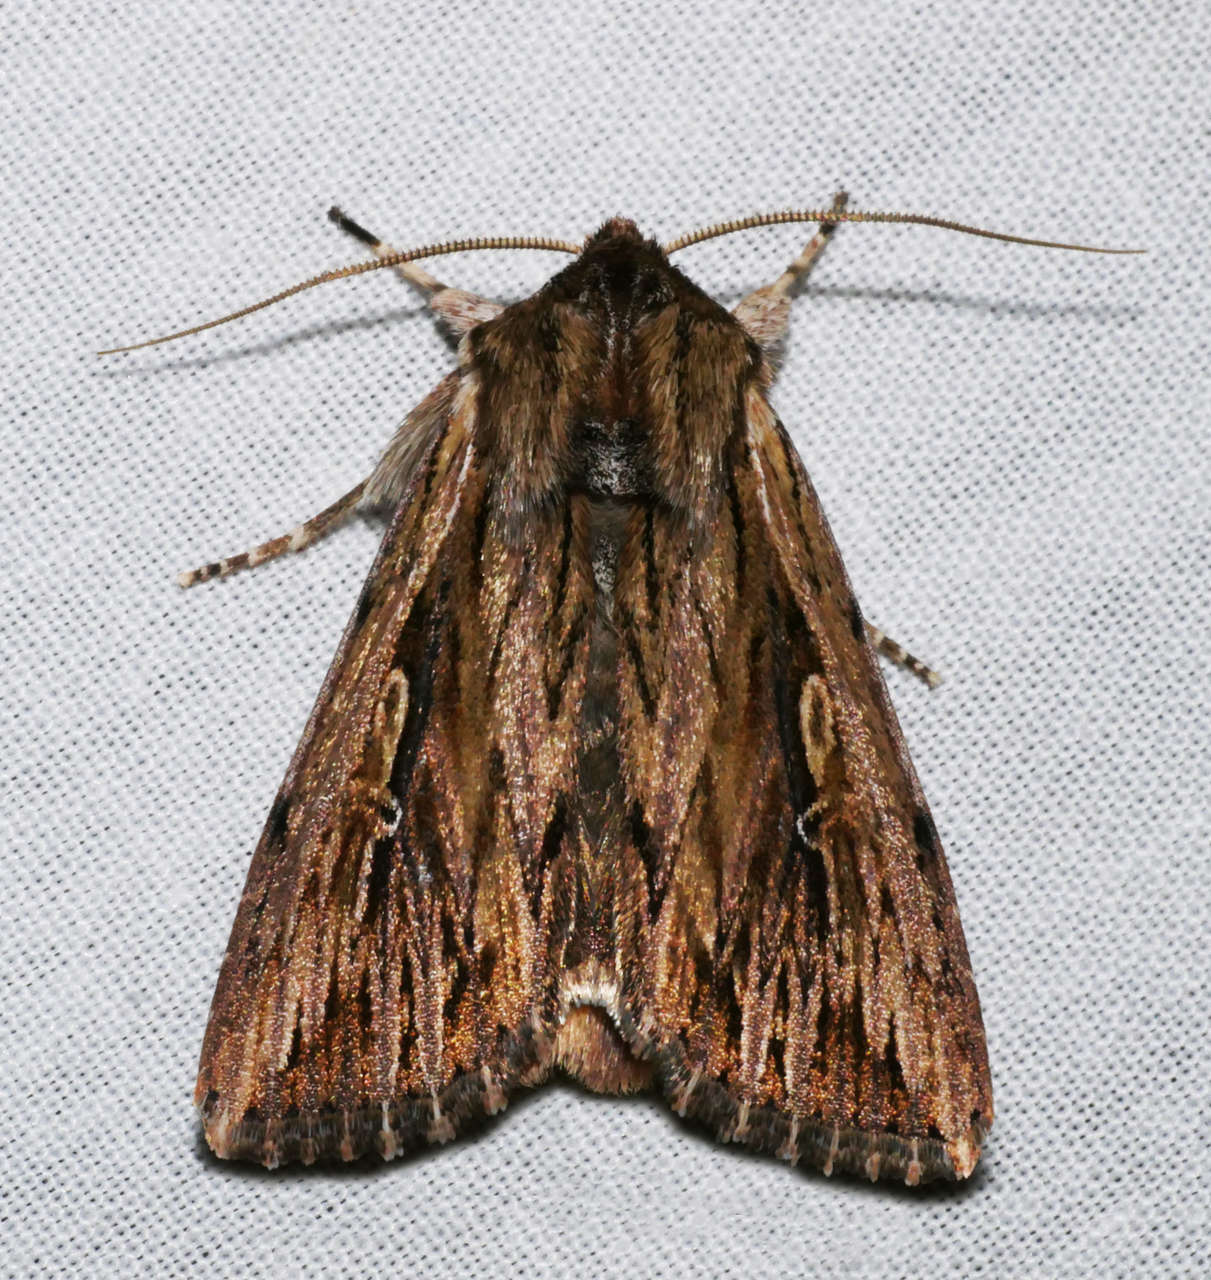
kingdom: Animalia
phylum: Arthropoda
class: Insecta
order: Lepidoptera
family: Noctuidae
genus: Persectania
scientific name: Persectania ewingii
